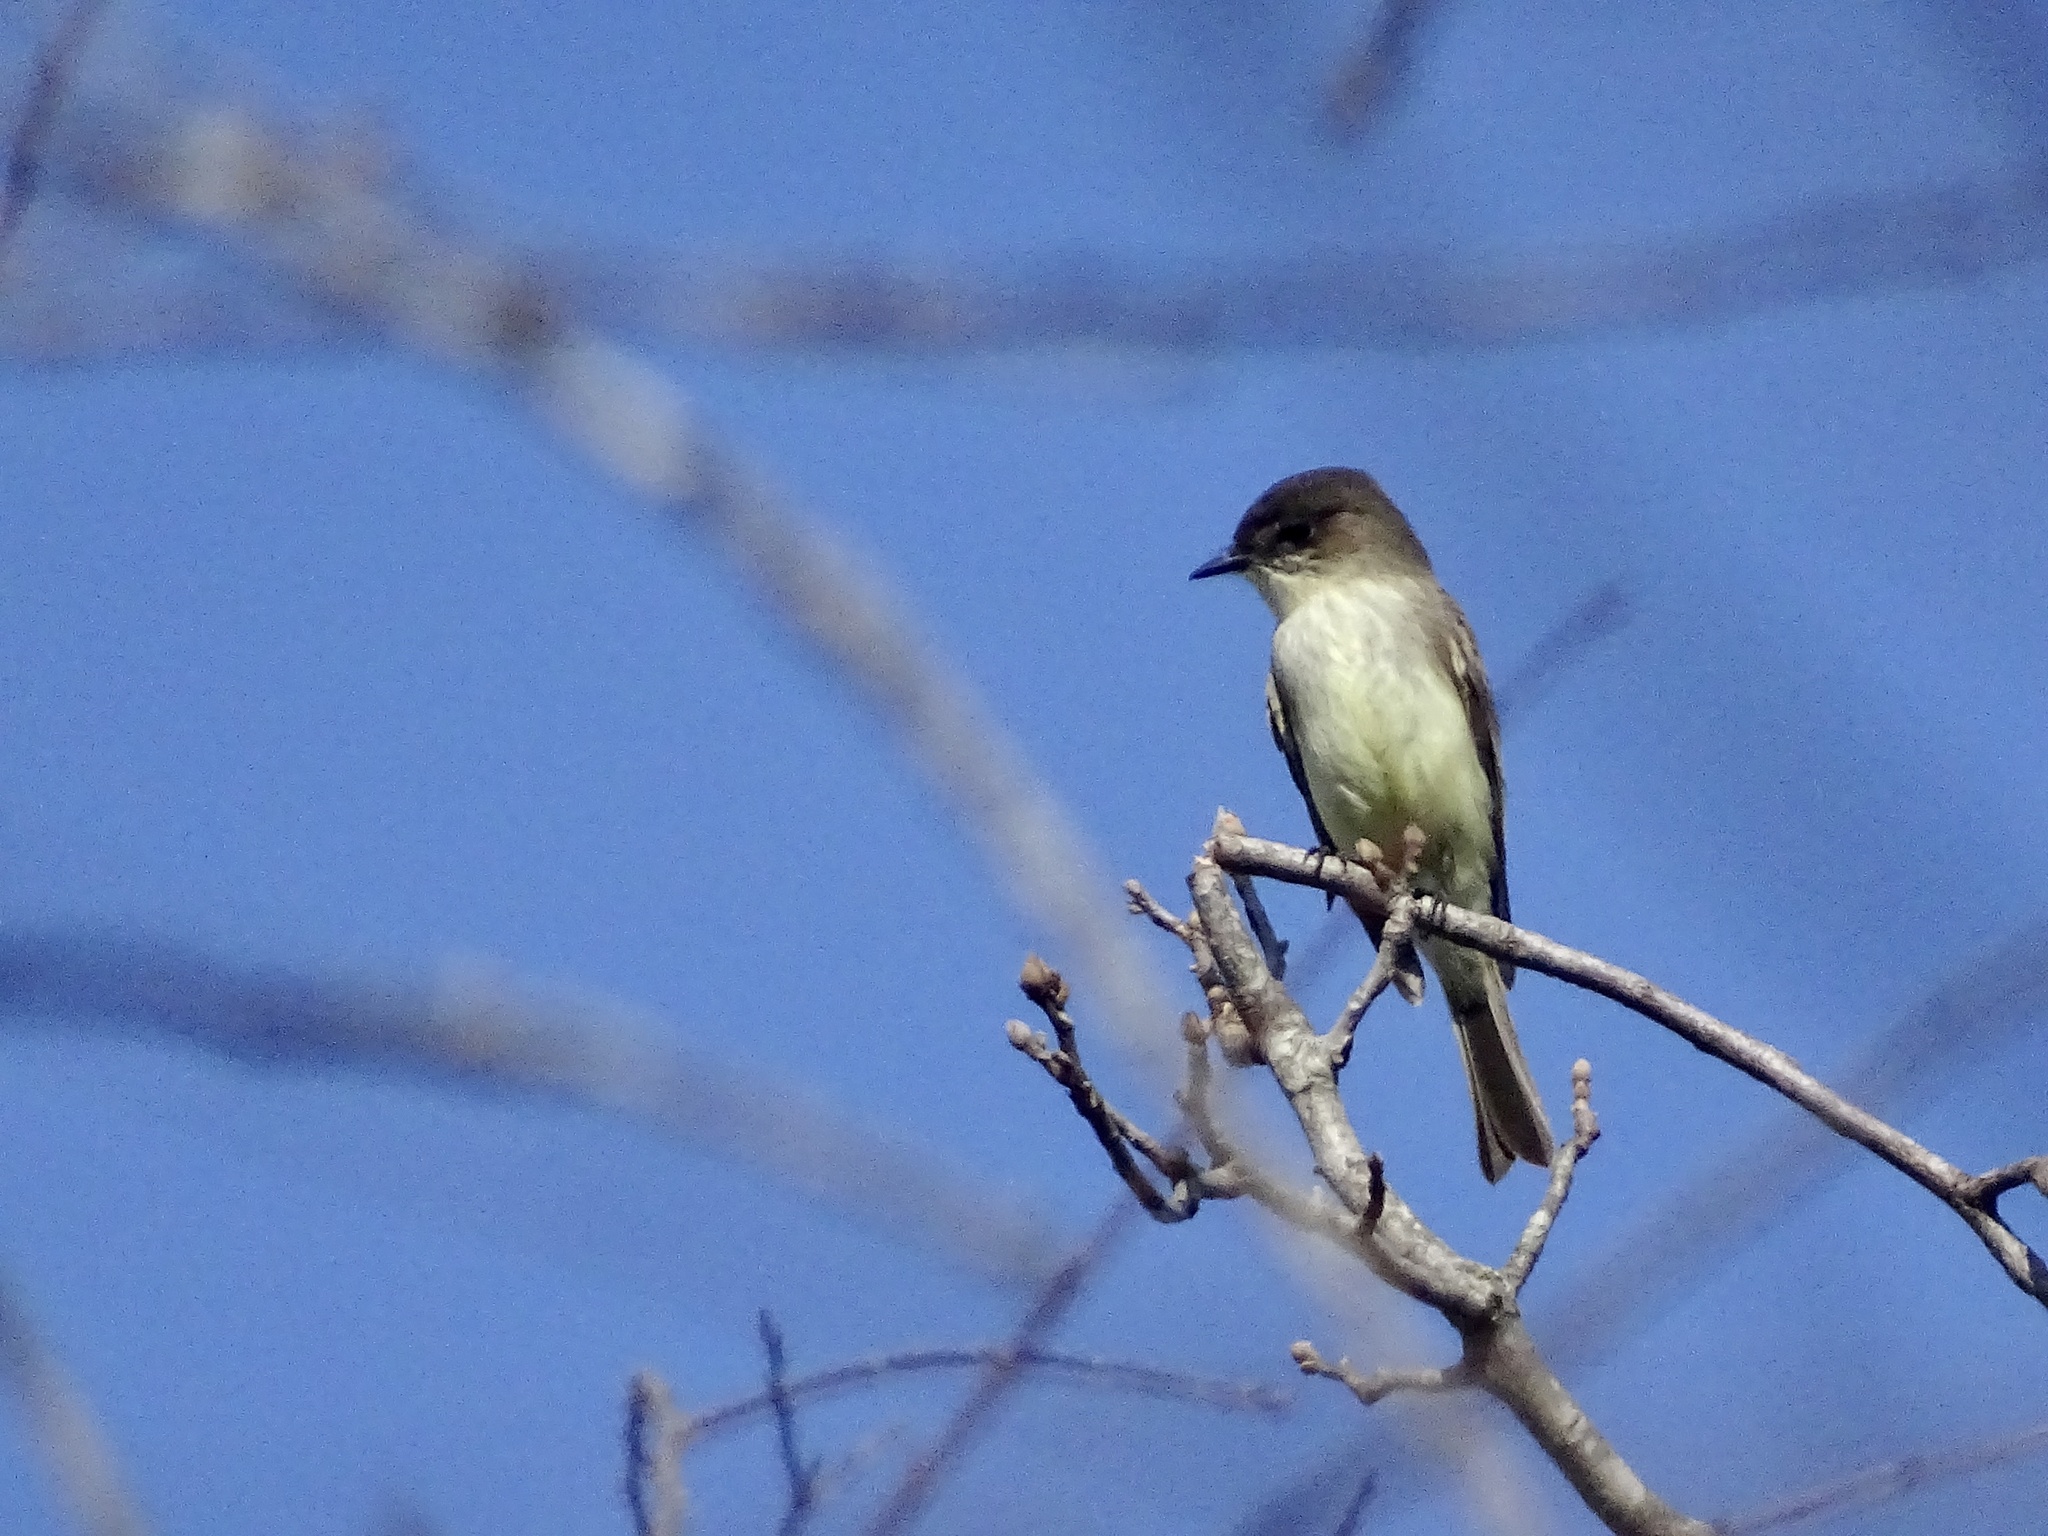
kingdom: Animalia
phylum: Chordata
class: Aves
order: Passeriformes
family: Tyrannidae
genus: Sayornis
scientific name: Sayornis phoebe
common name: Eastern phoebe
